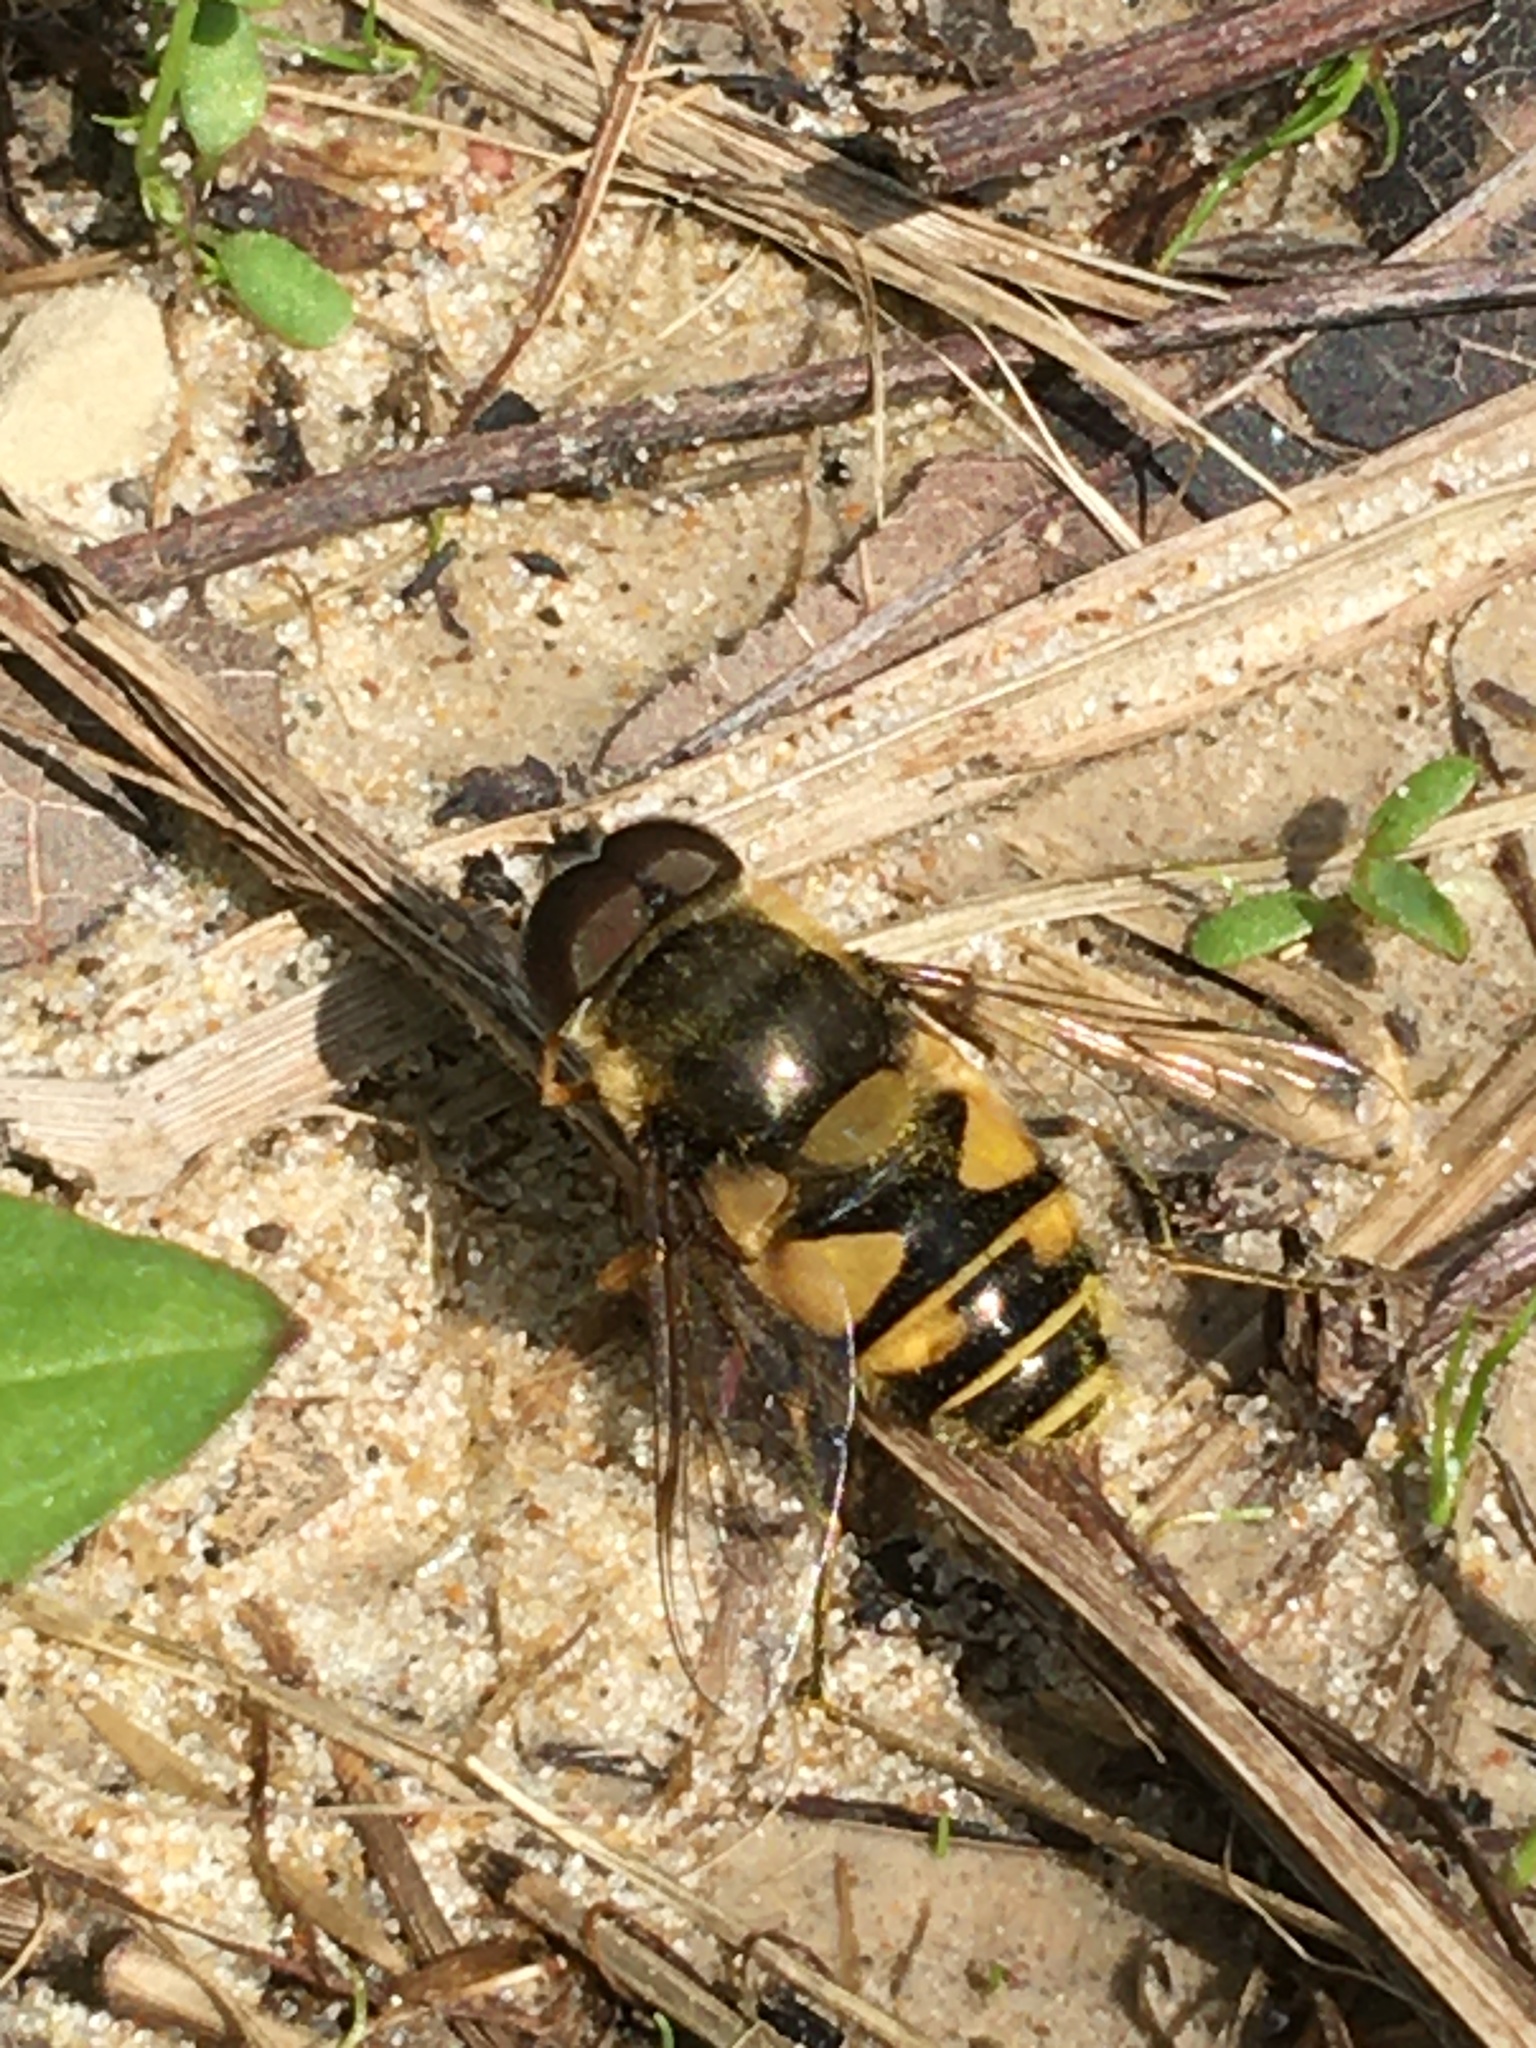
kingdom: Animalia
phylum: Arthropoda
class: Insecta
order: Diptera
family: Syrphidae
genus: Eristalis
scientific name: Eristalis transversa
